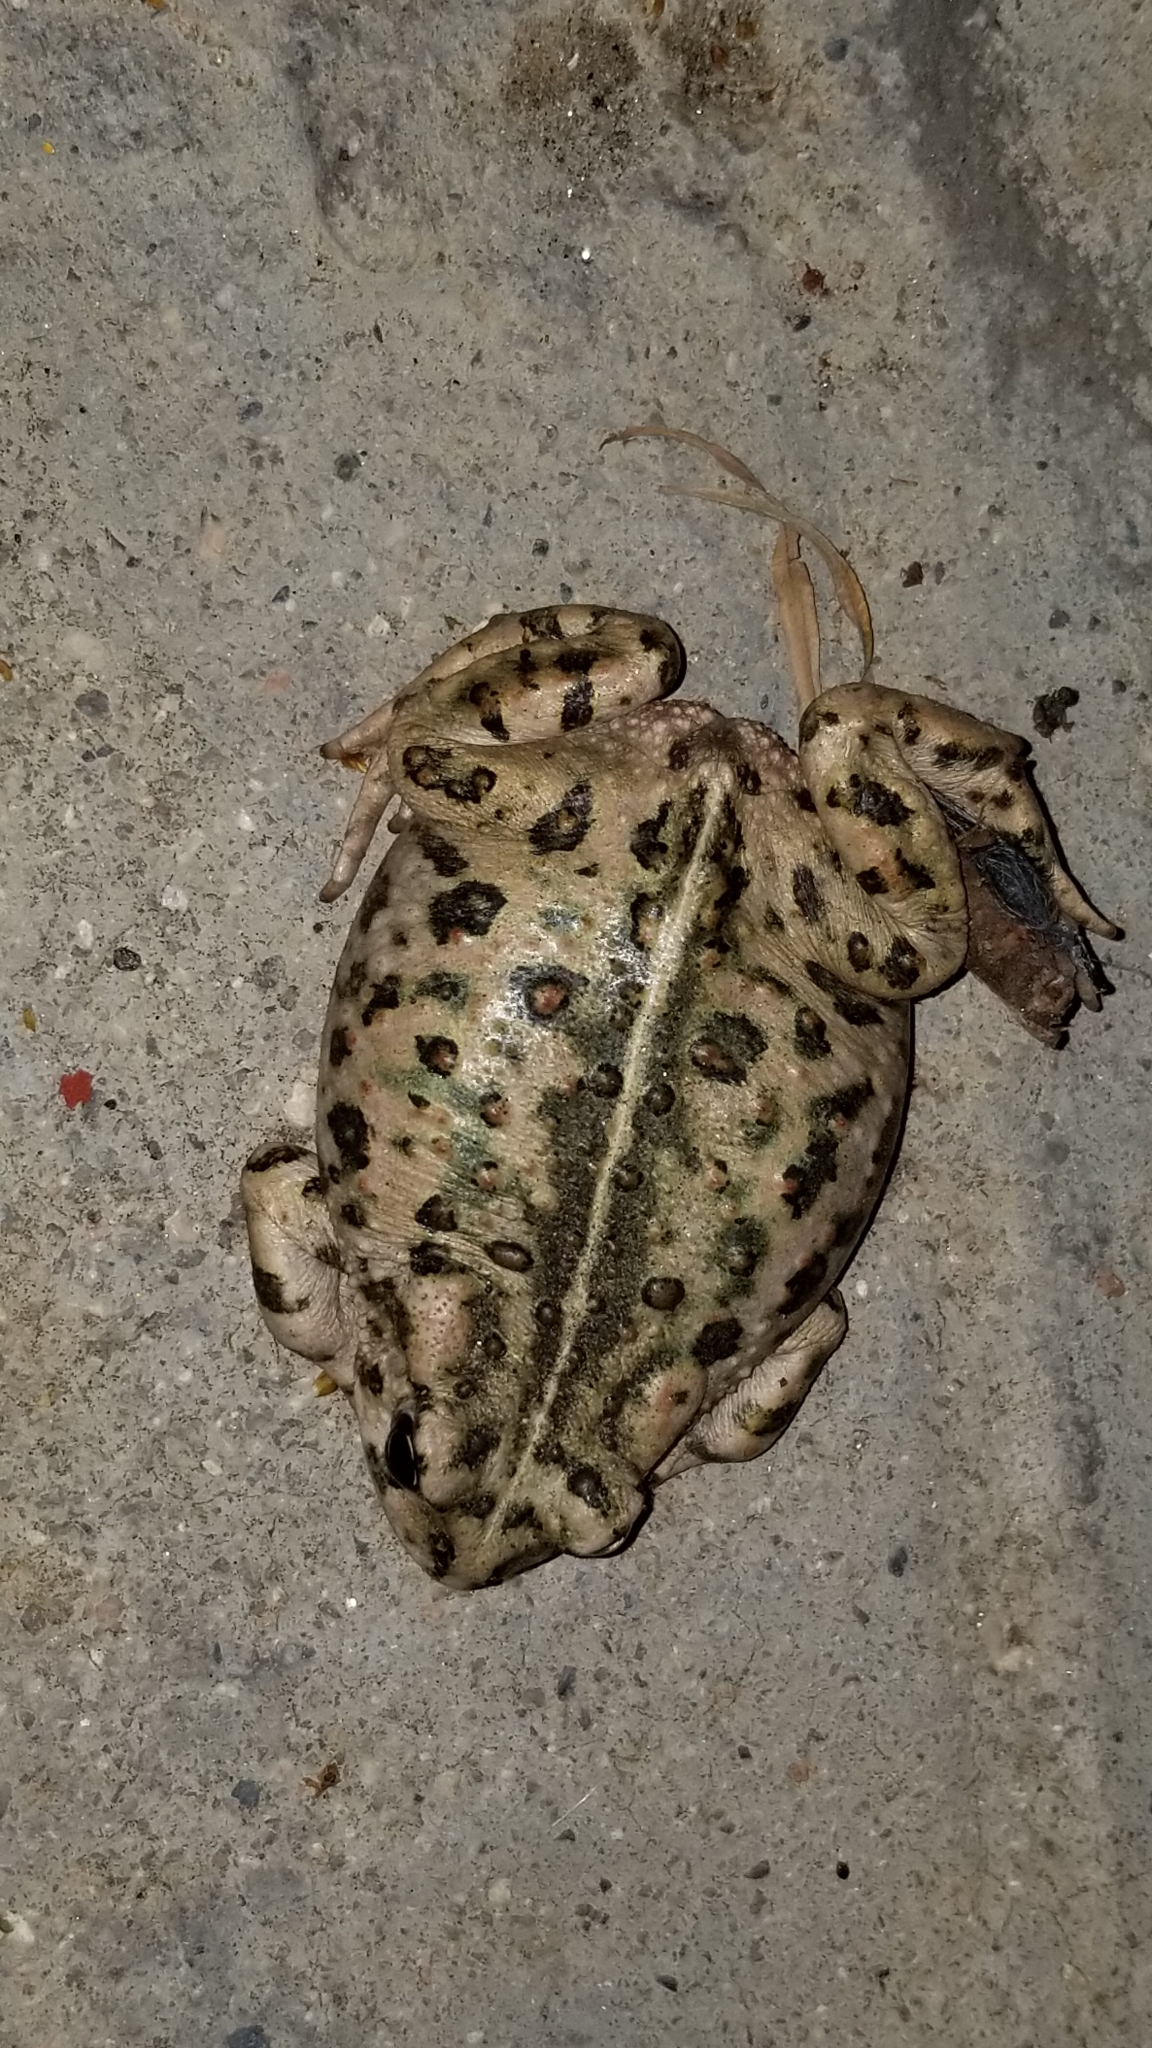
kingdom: Animalia
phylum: Chordata
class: Amphibia
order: Anura
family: Bufonidae
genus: Anaxyrus
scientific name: Anaxyrus boreas
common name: Western toad
